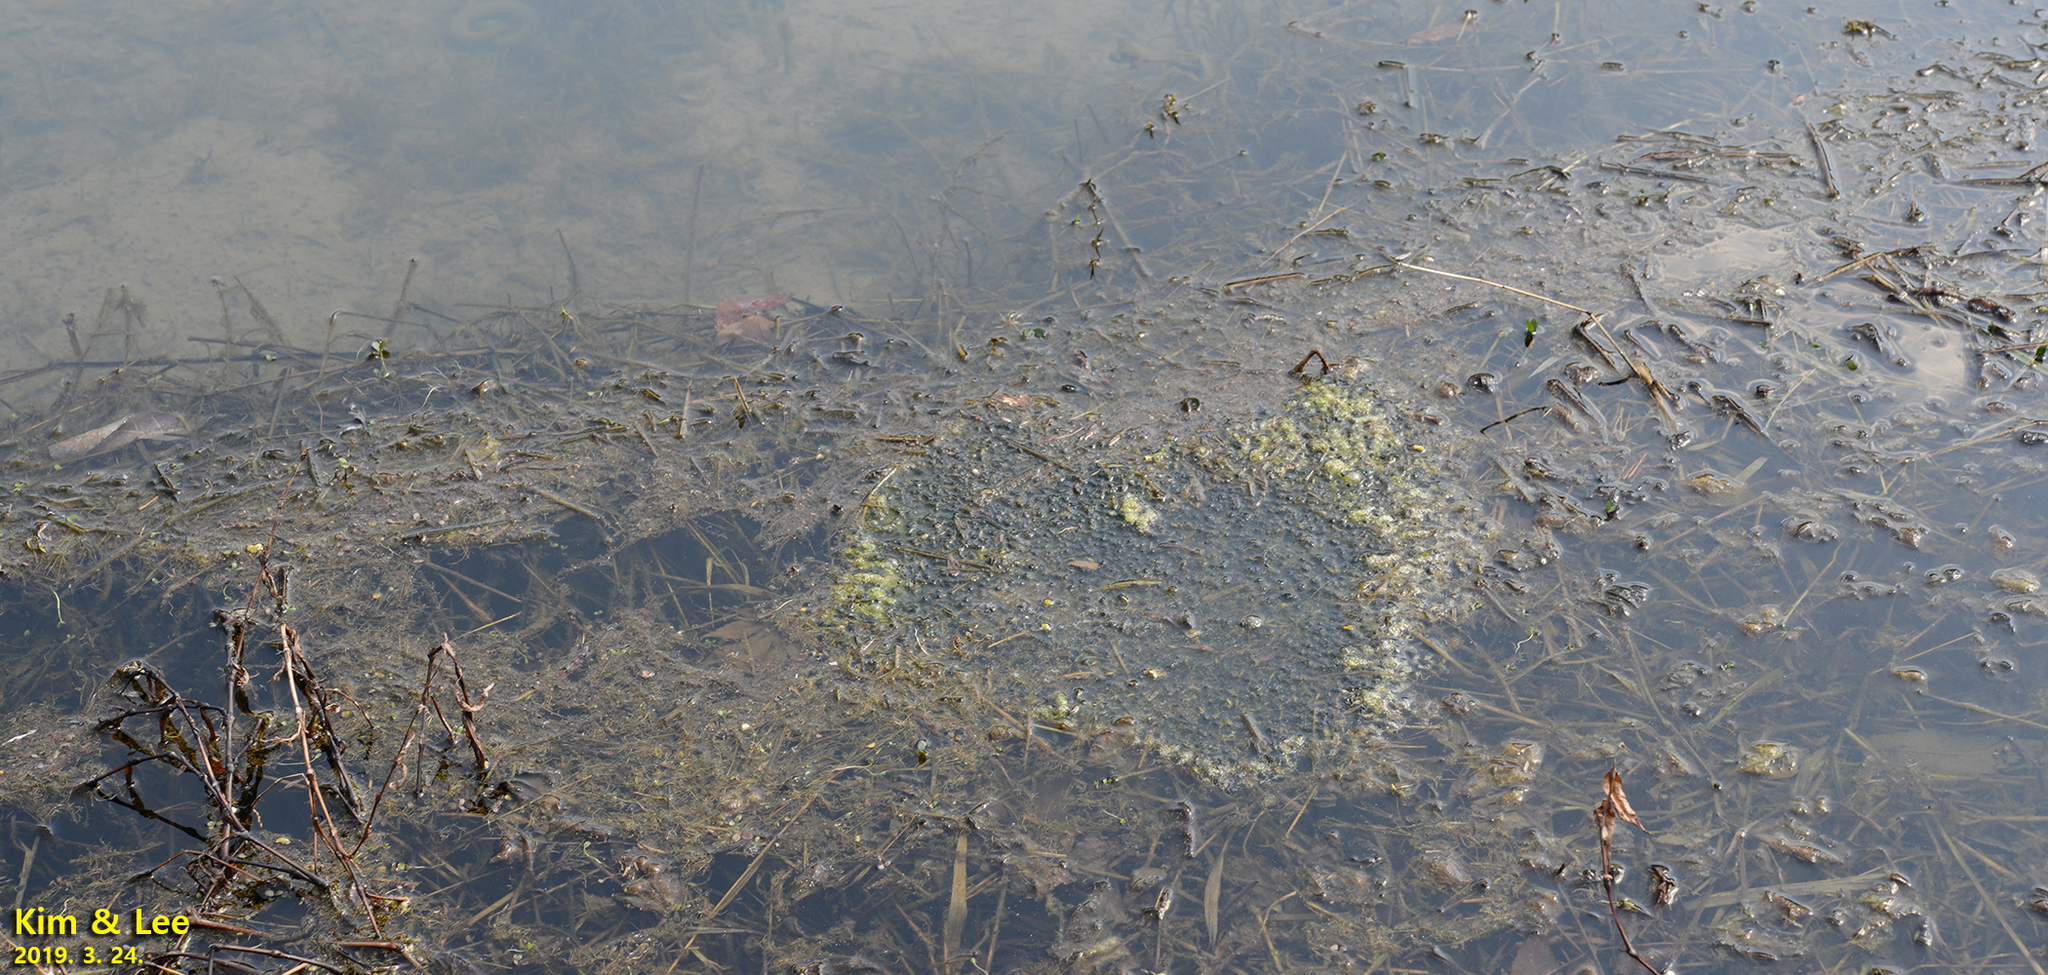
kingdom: Animalia
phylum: Chordata
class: Amphibia
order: Anura
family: Ranidae
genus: Rana
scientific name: Rana uenoi
